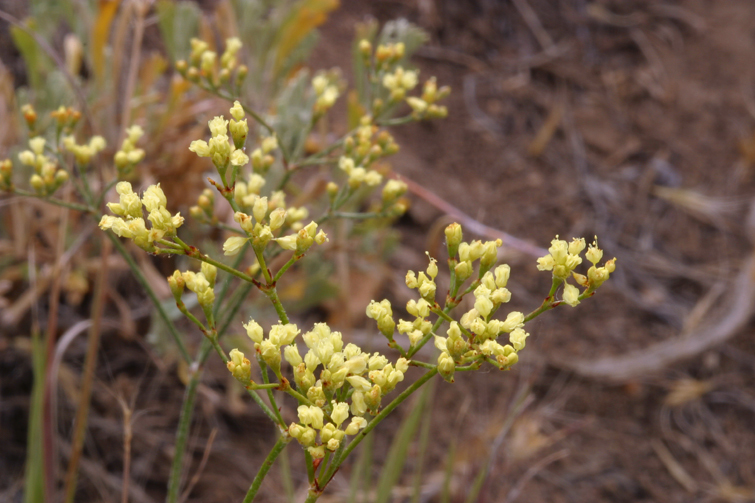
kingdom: Plantae
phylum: Tracheophyta
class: Magnoliopsida
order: Caryophyllales
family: Polygonaceae
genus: Eriogonum
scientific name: Eriogonum microtheca
